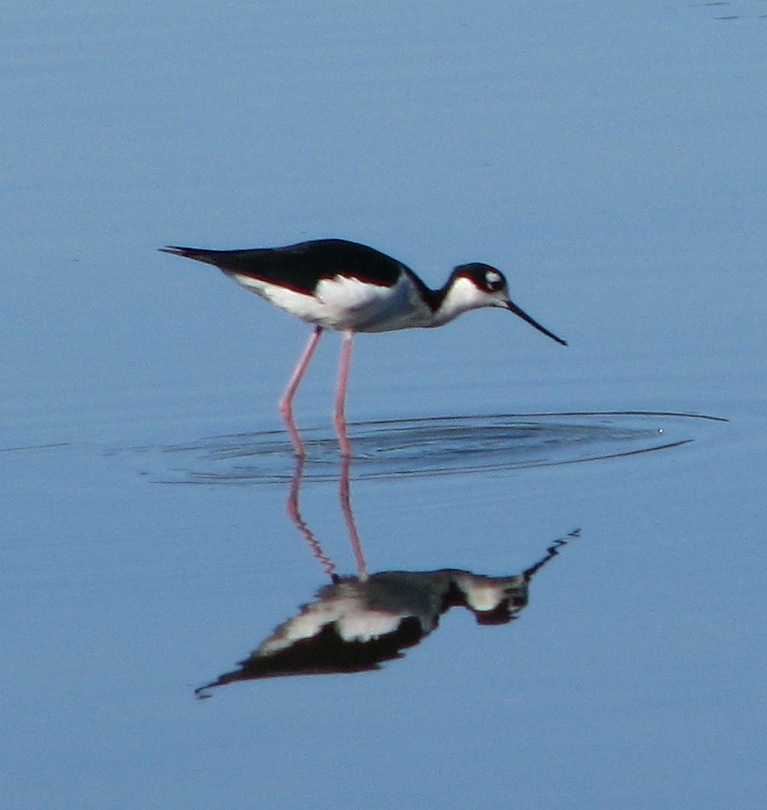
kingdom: Animalia
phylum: Chordata
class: Aves
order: Charadriiformes
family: Recurvirostridae
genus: Himantopus
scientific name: Himantopus mexicanus
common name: Black-necked stilt
